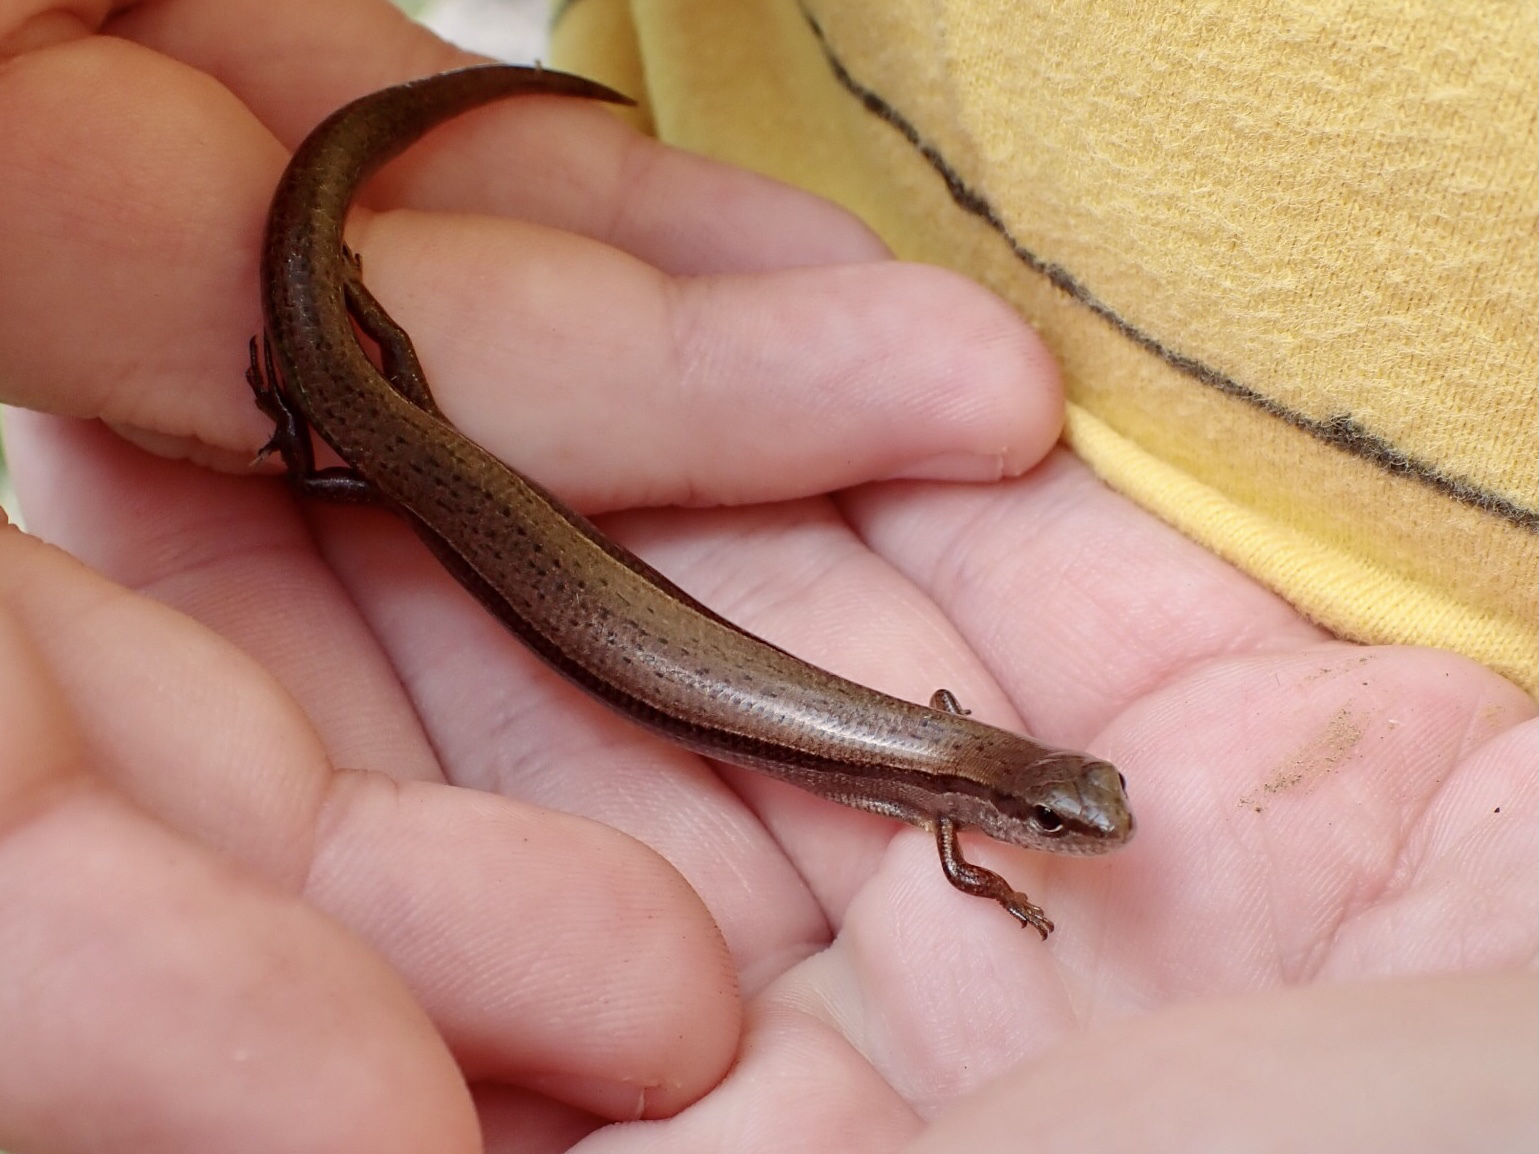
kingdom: Animalia
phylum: Chordata
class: Squamata
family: Scincidae
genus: Scincella
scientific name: Scincella lateralis
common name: Ground skink
